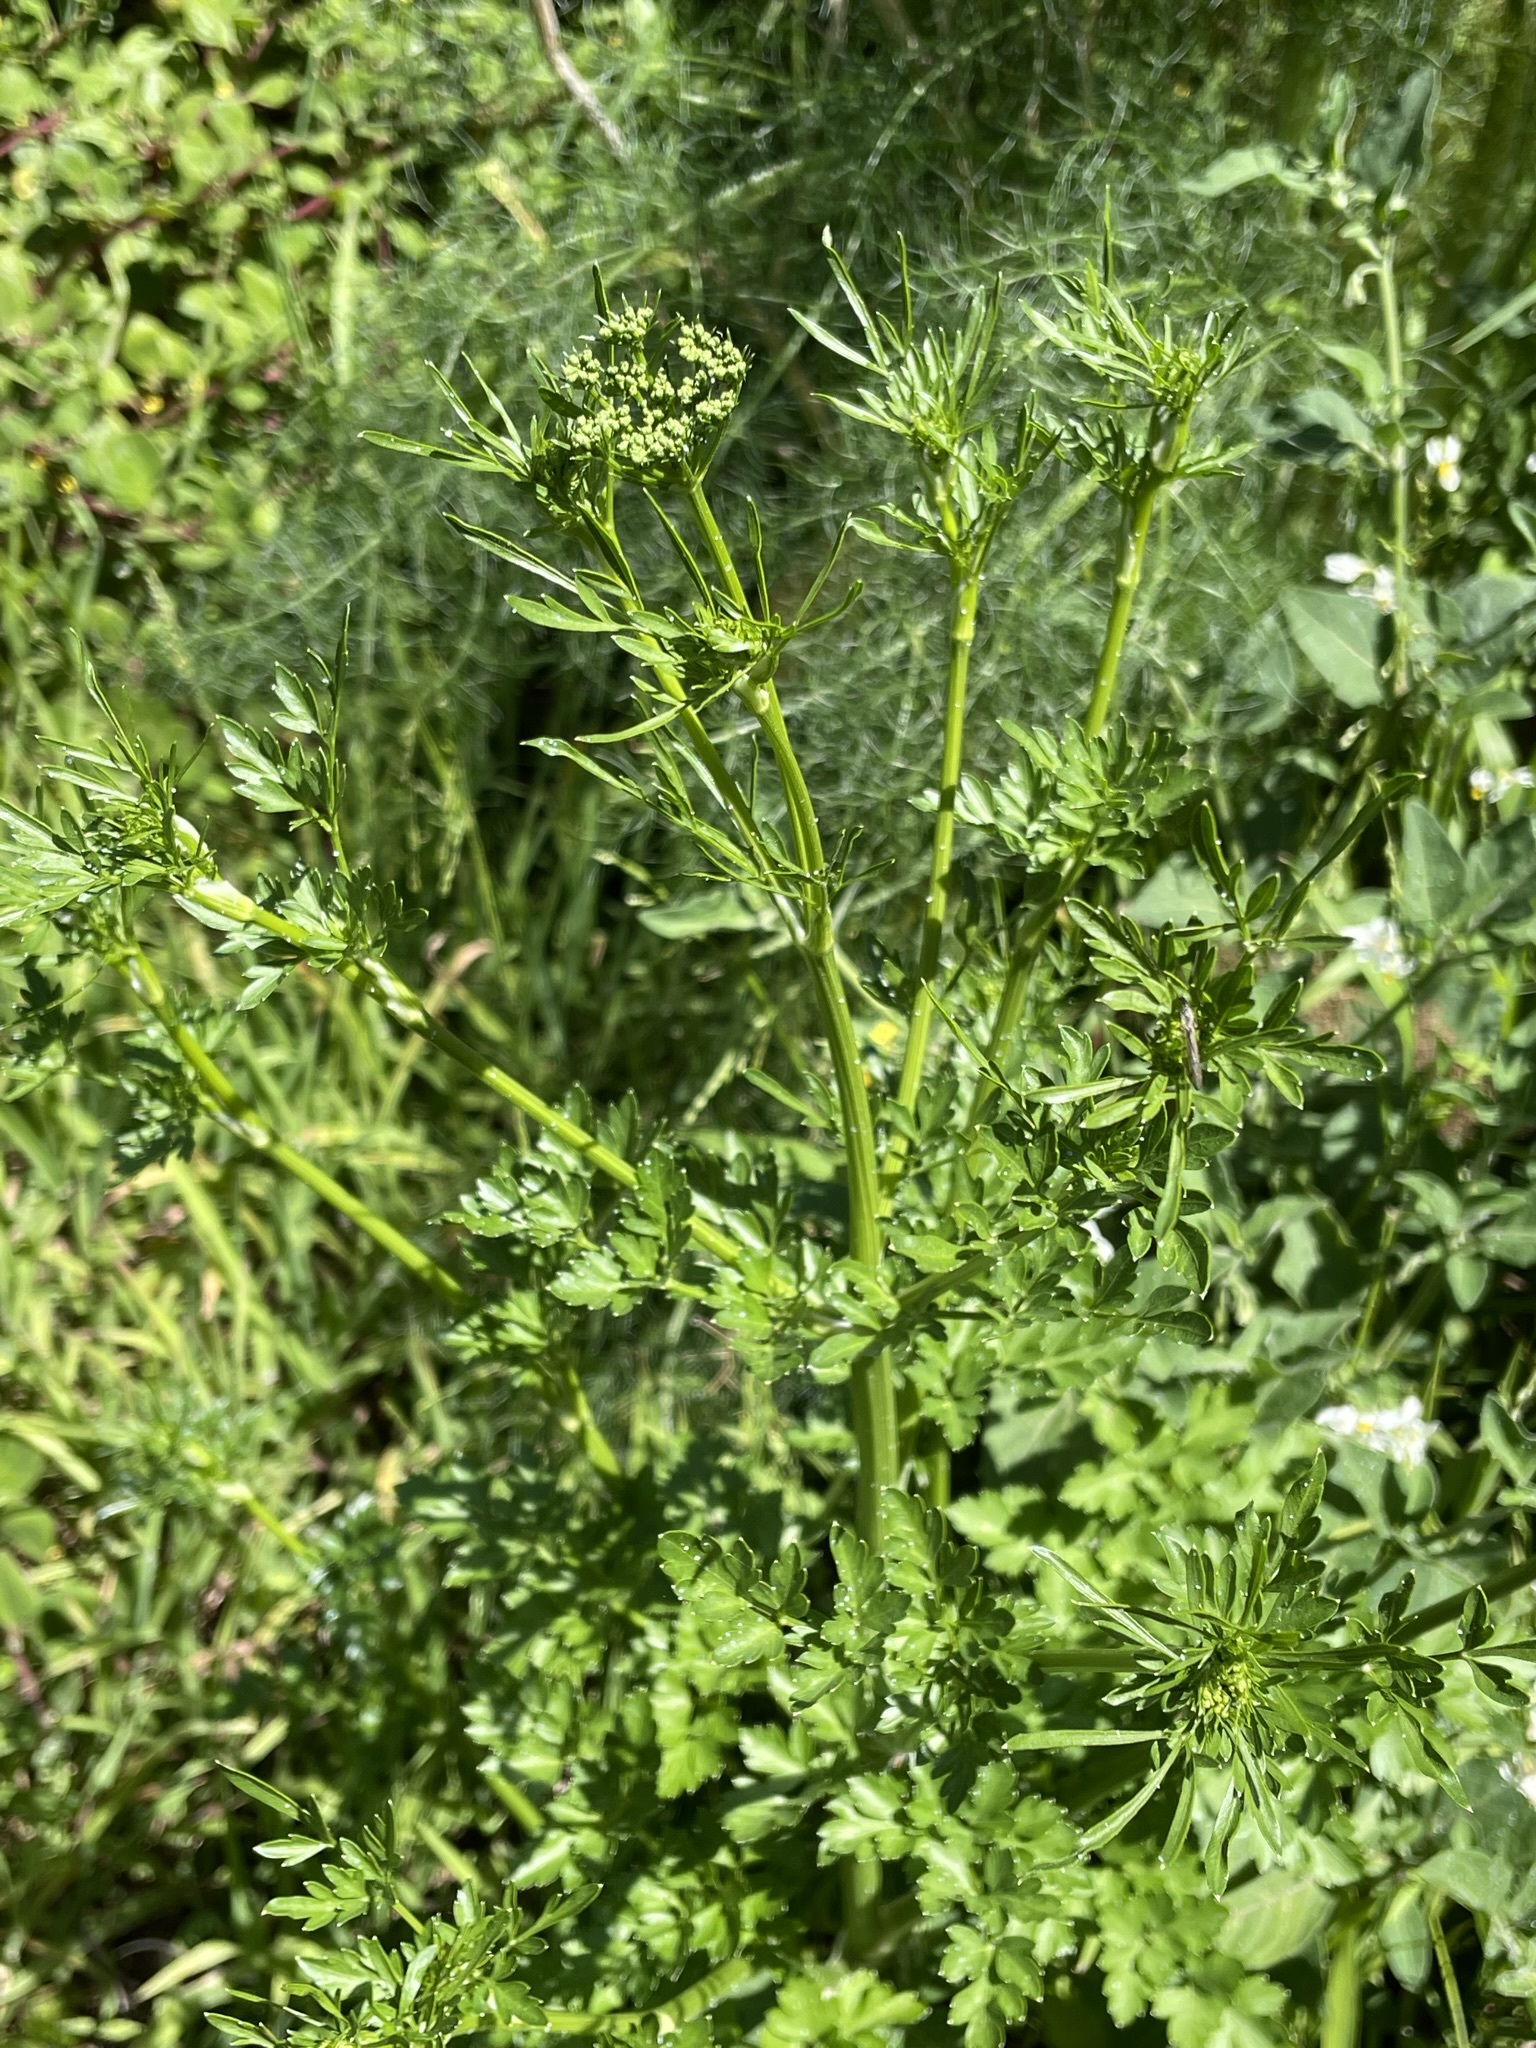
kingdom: Plantae
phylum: Tracheophyta
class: Magnoliopsida
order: Apiales
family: Apiaceae
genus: Petroselinum
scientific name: Petroselinum crispum
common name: Parsley
